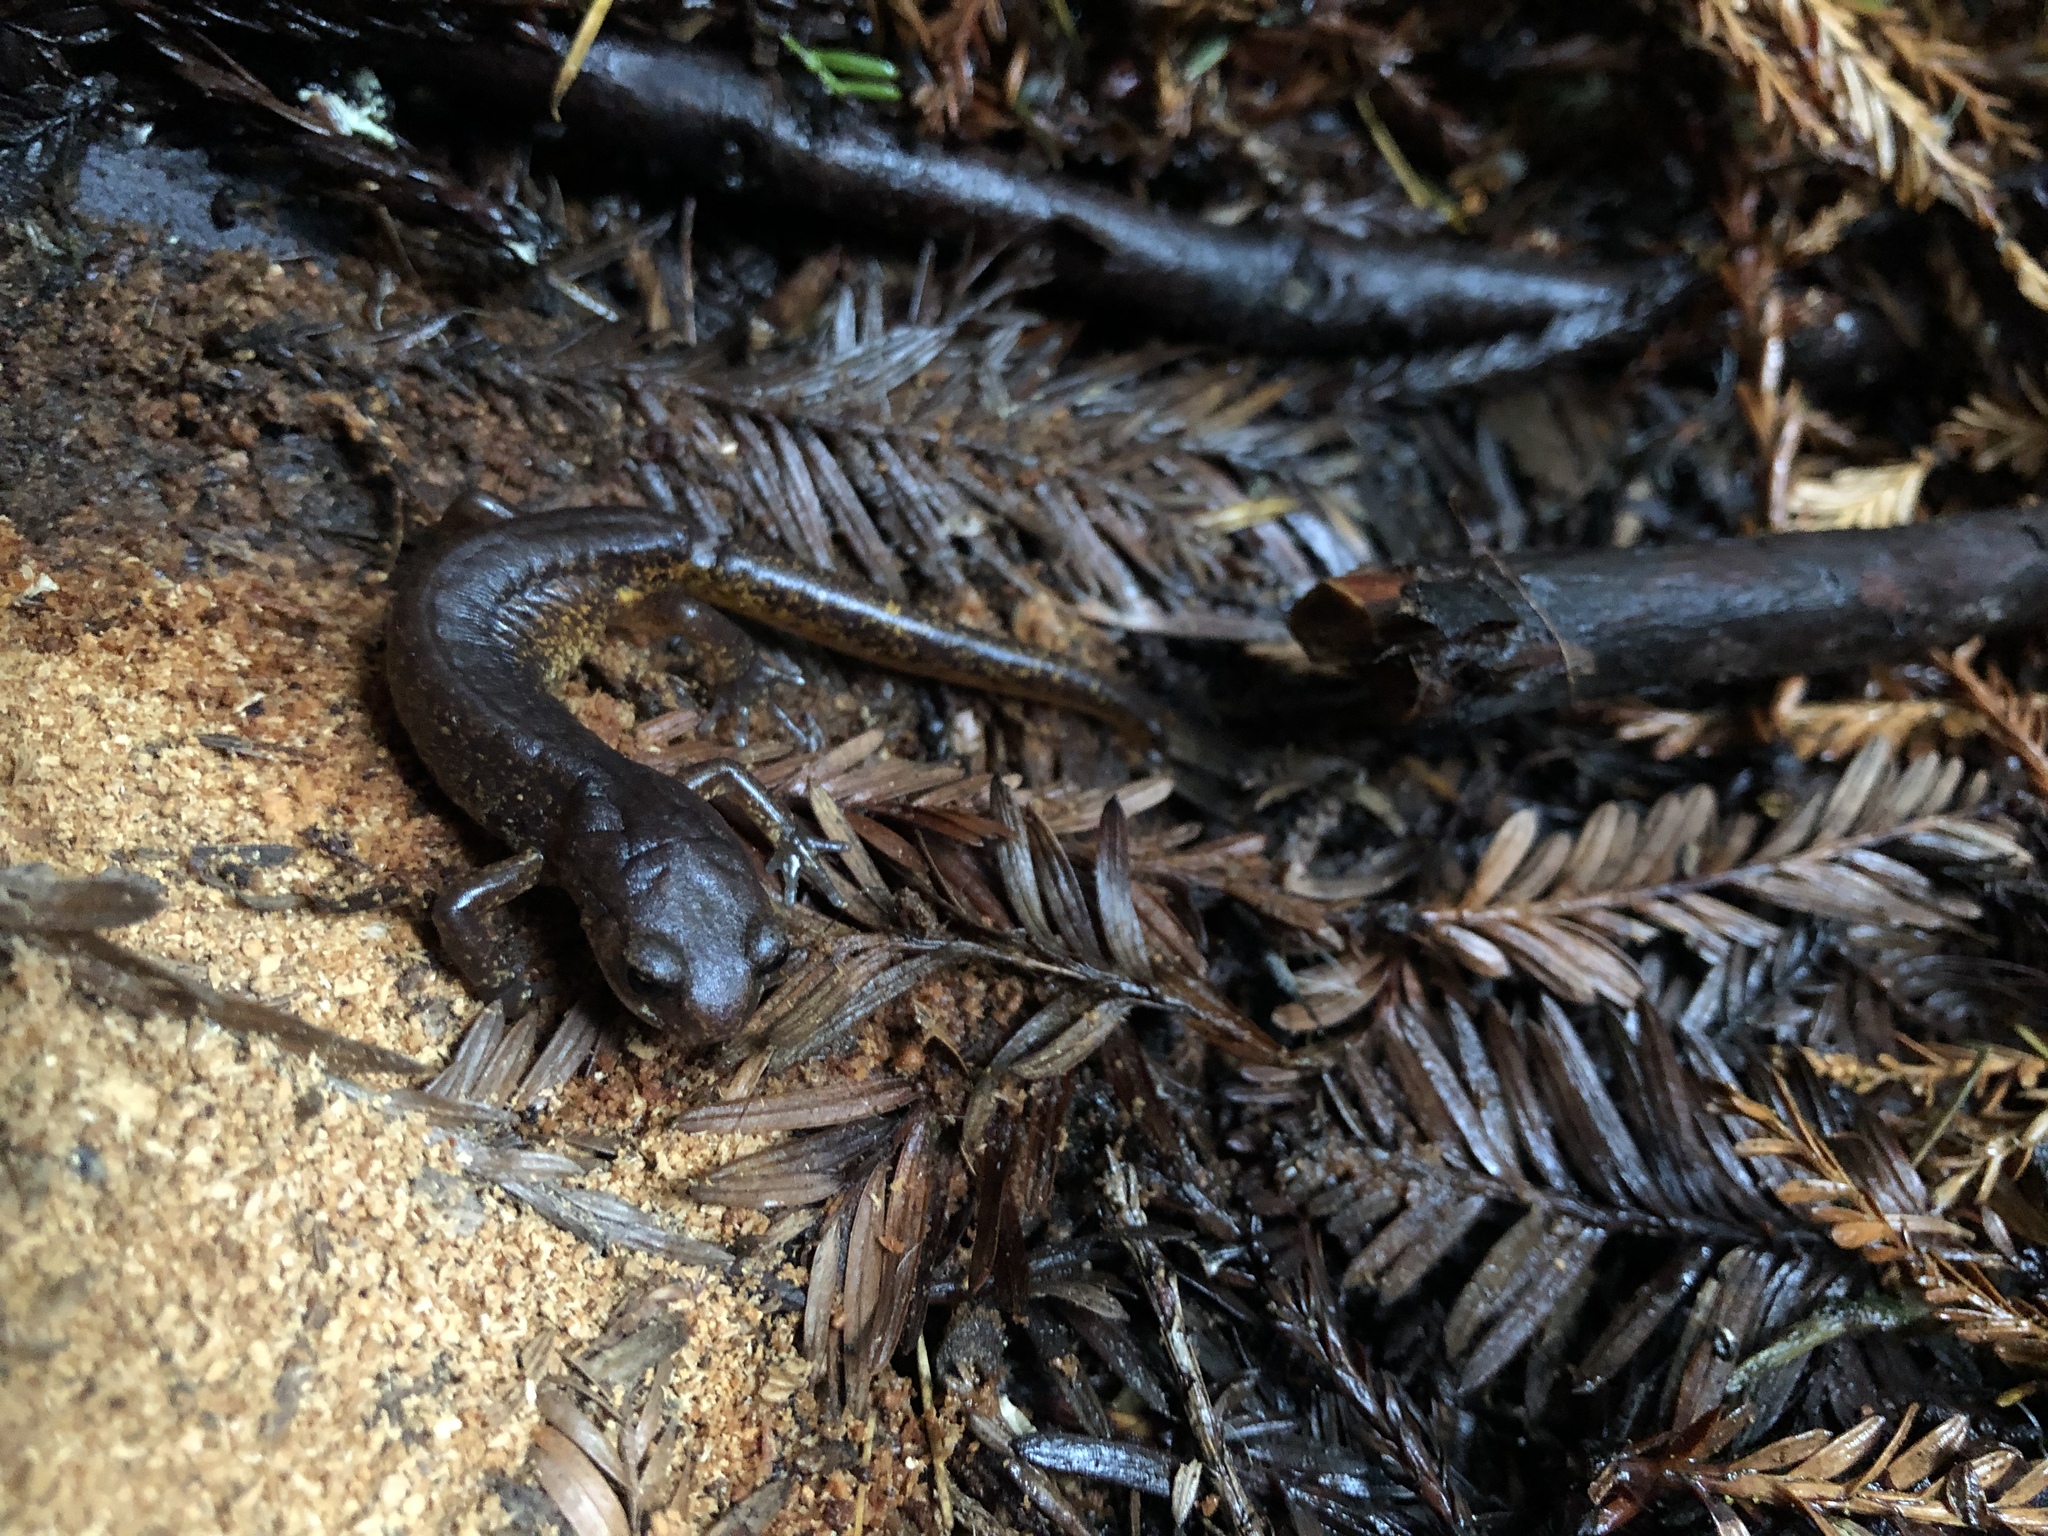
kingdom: Animalia
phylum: Chordata
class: Amphibia
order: Caudata
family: Plethodontidae
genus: Ensatina
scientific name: Ensatina eschscholtzii
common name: Ensatina
